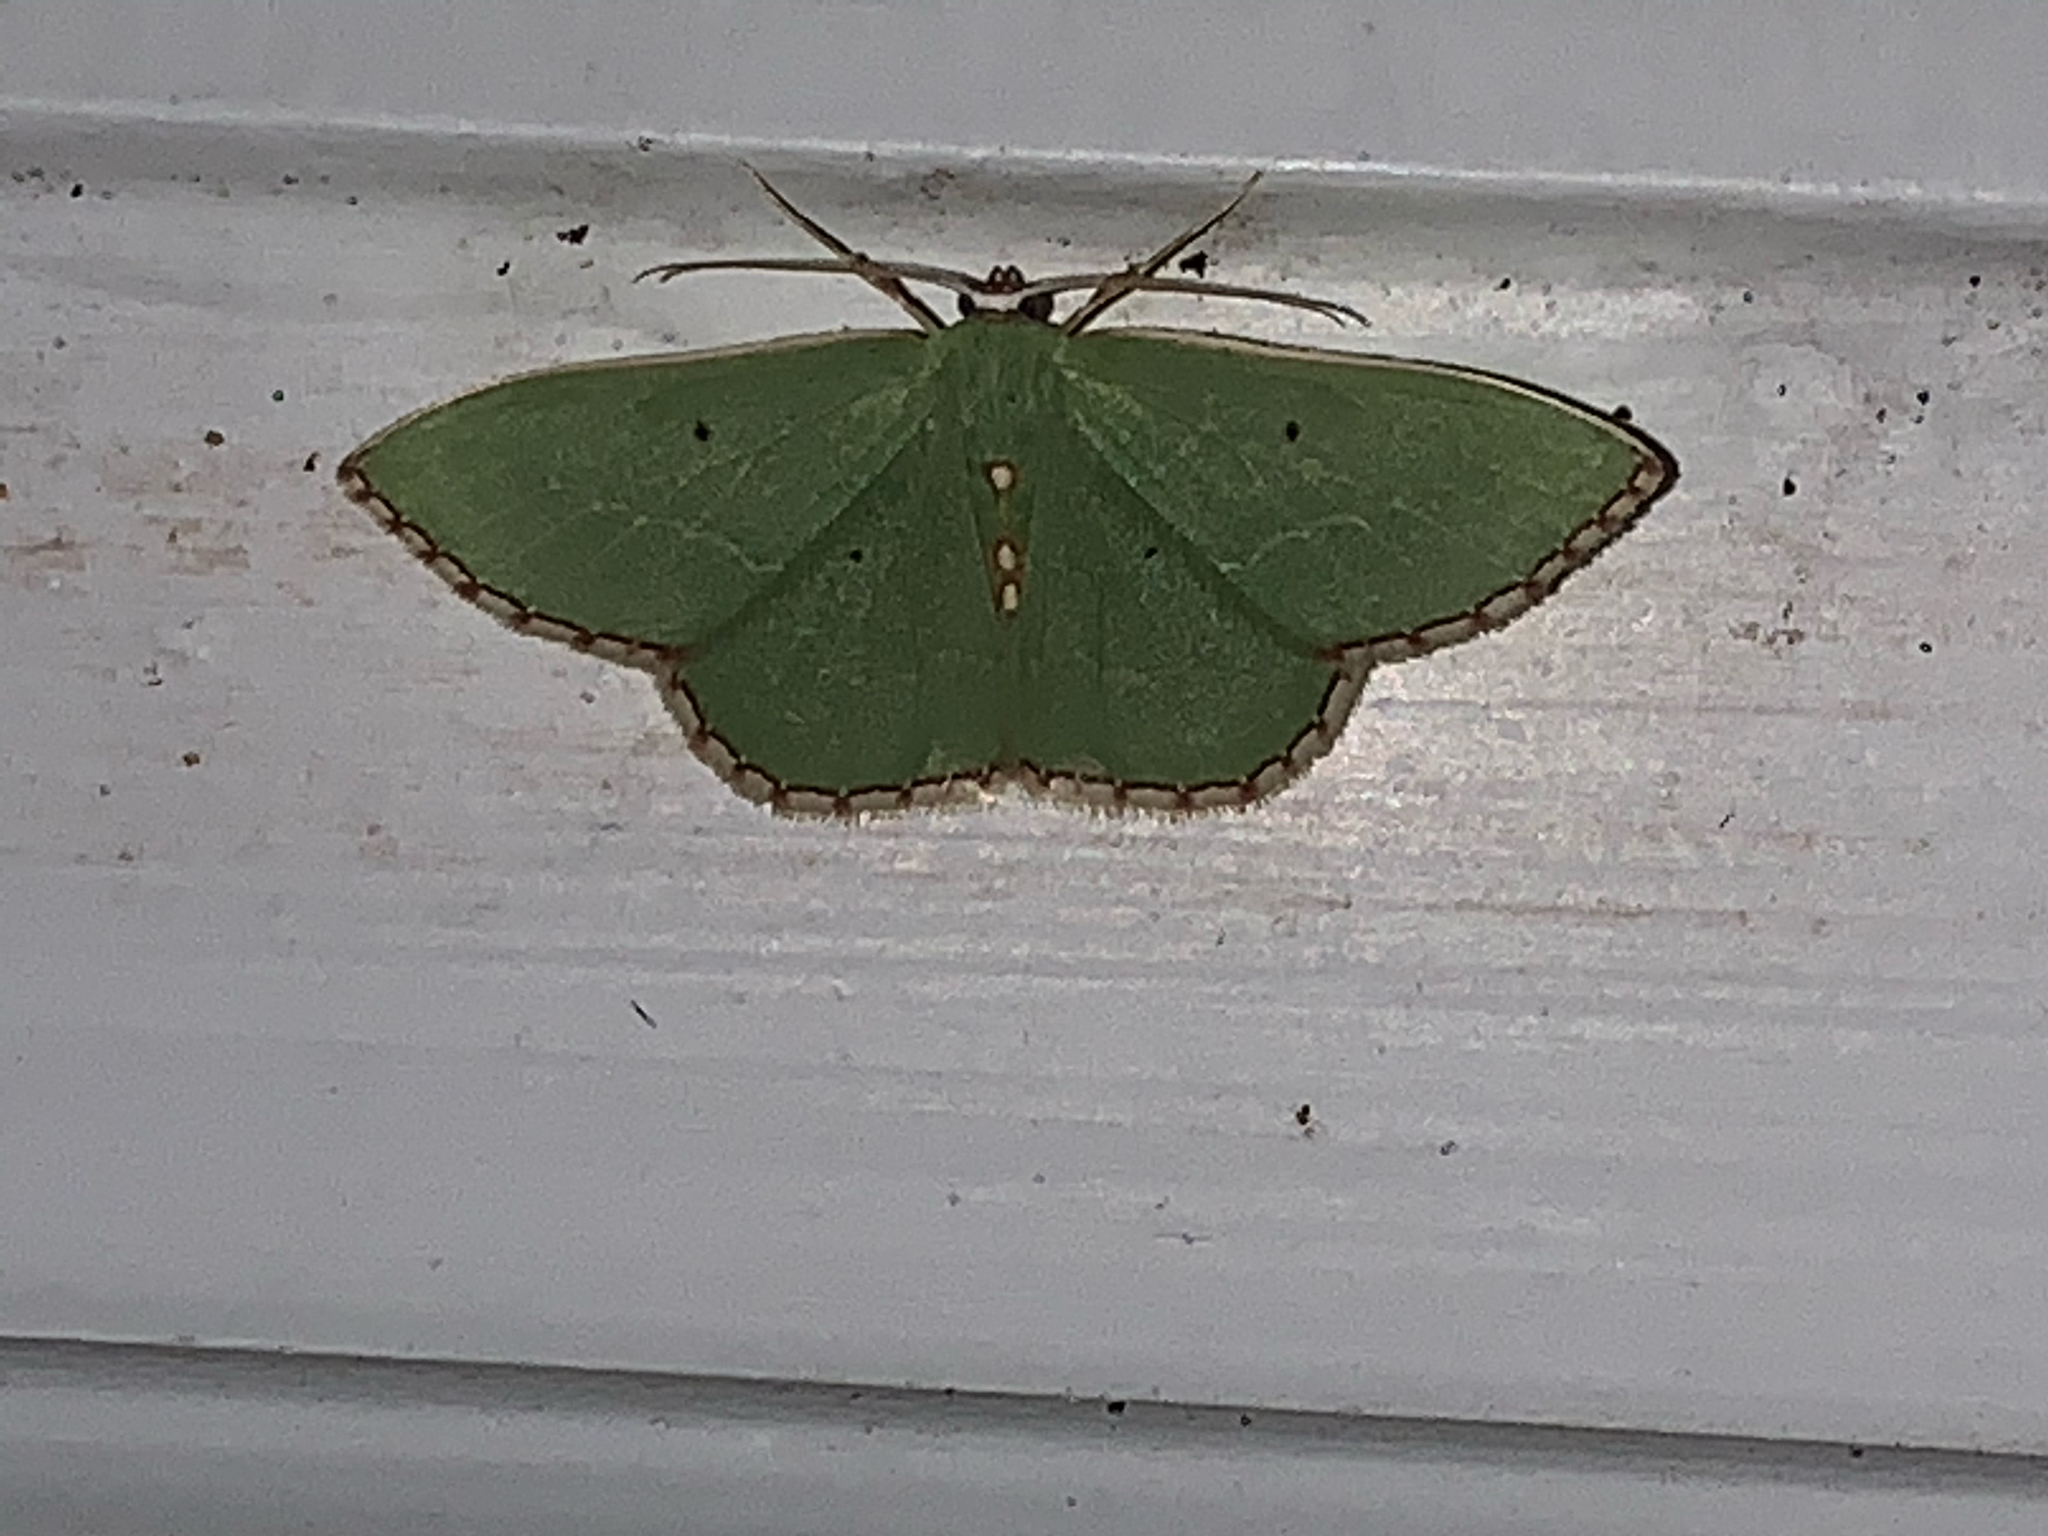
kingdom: Animalia
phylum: Arthropoda
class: Insecta
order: Lepidoptera
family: Geometridae
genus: Nemoria
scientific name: Nemoria lixaria
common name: Red-bordered emerald
